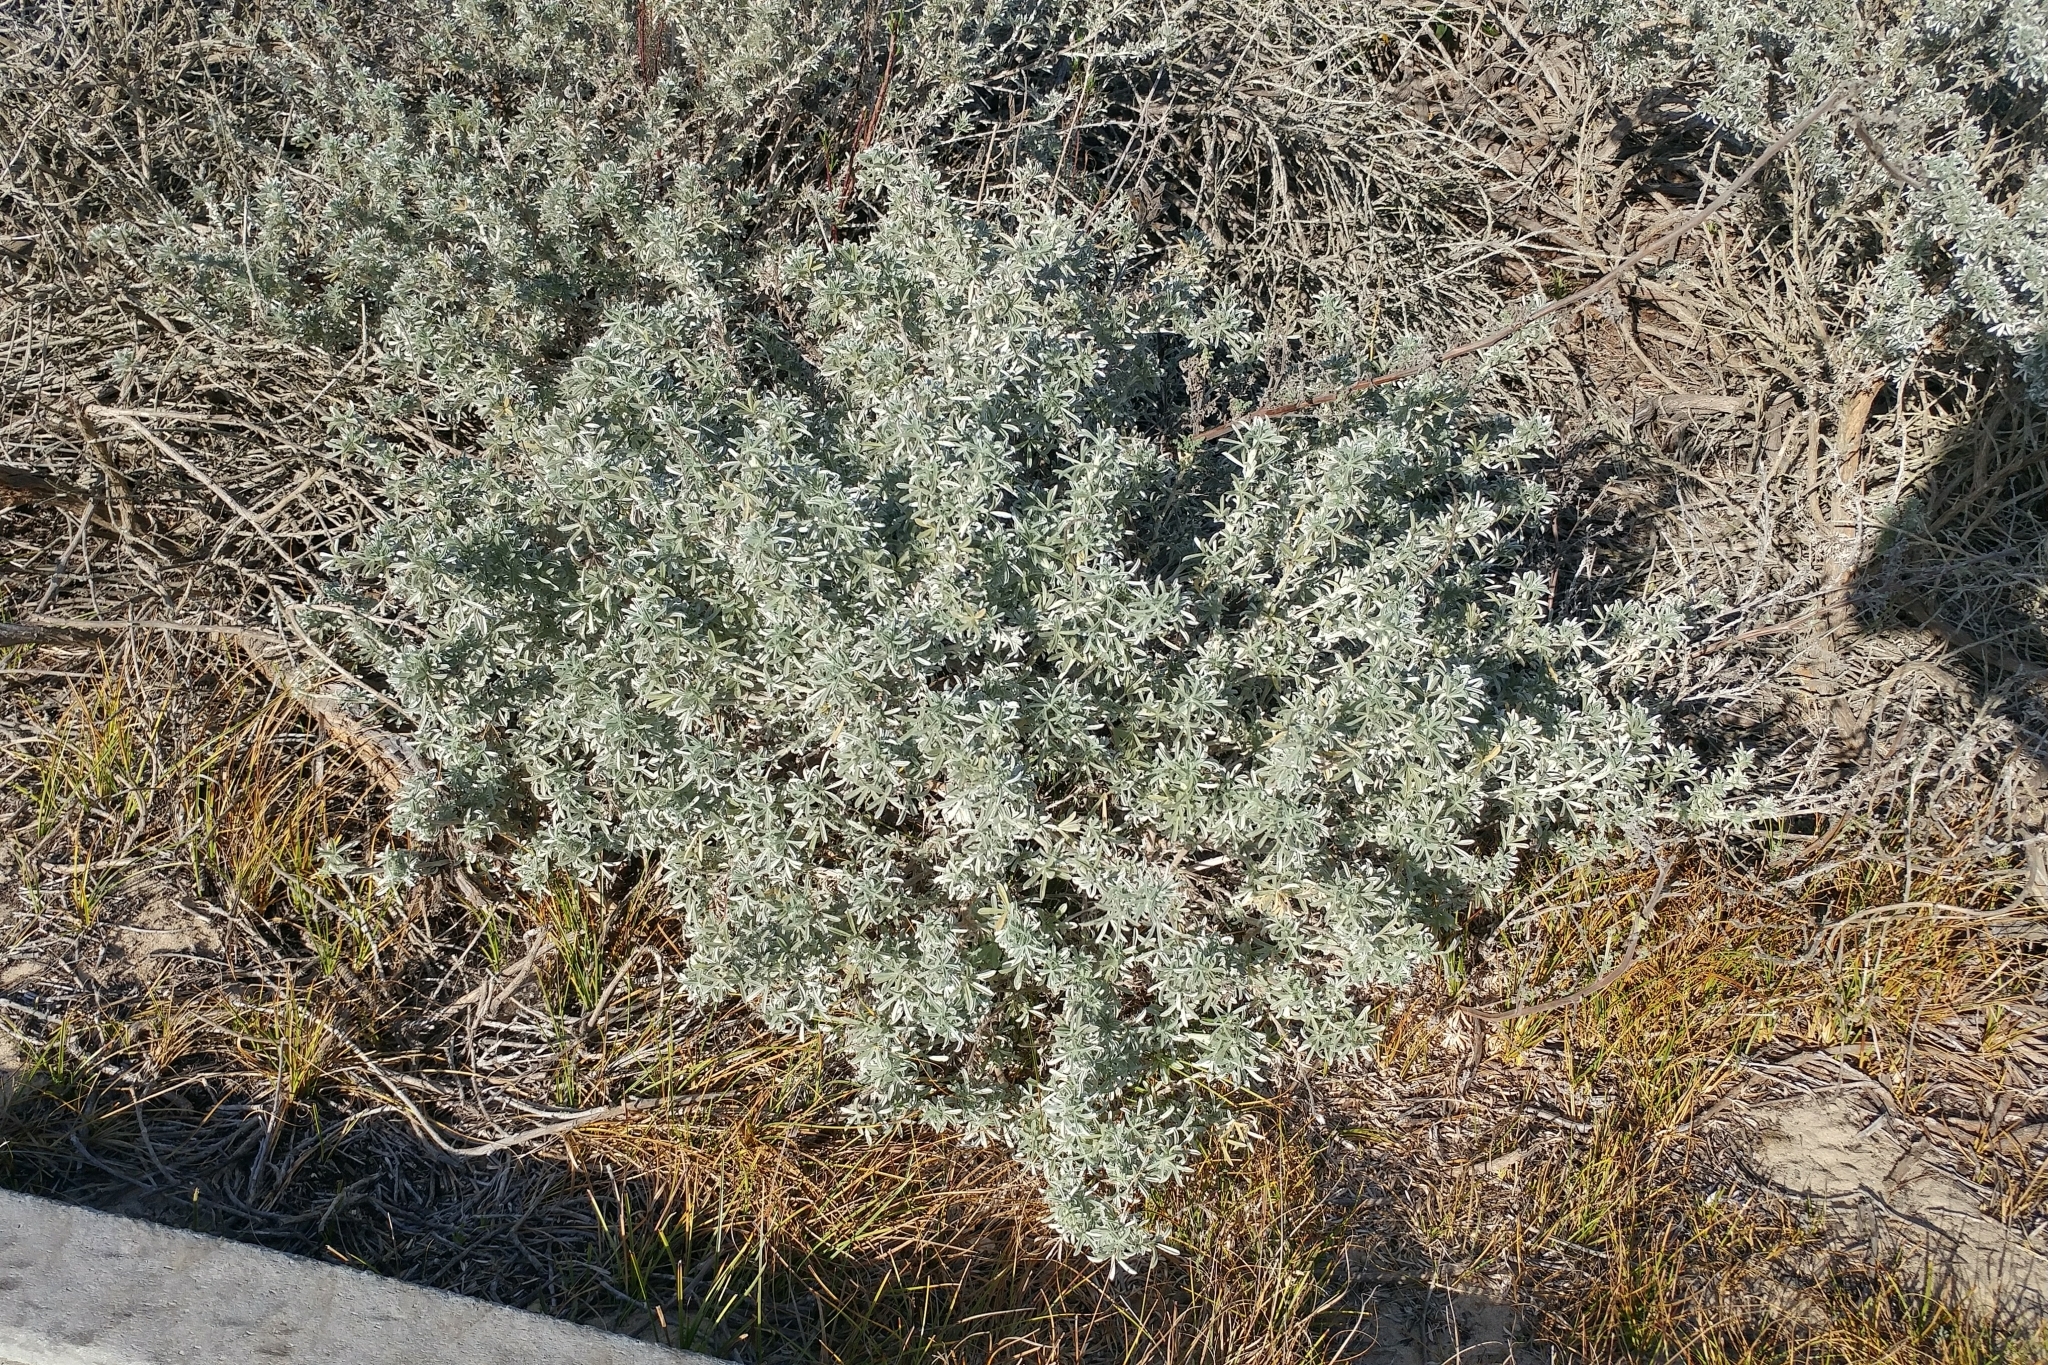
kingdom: Plantae
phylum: Tracheophyta
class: Magnoliopsida
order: Fabales
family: Fabaceae
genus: Lupinus
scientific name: Lupinus chamissonis
